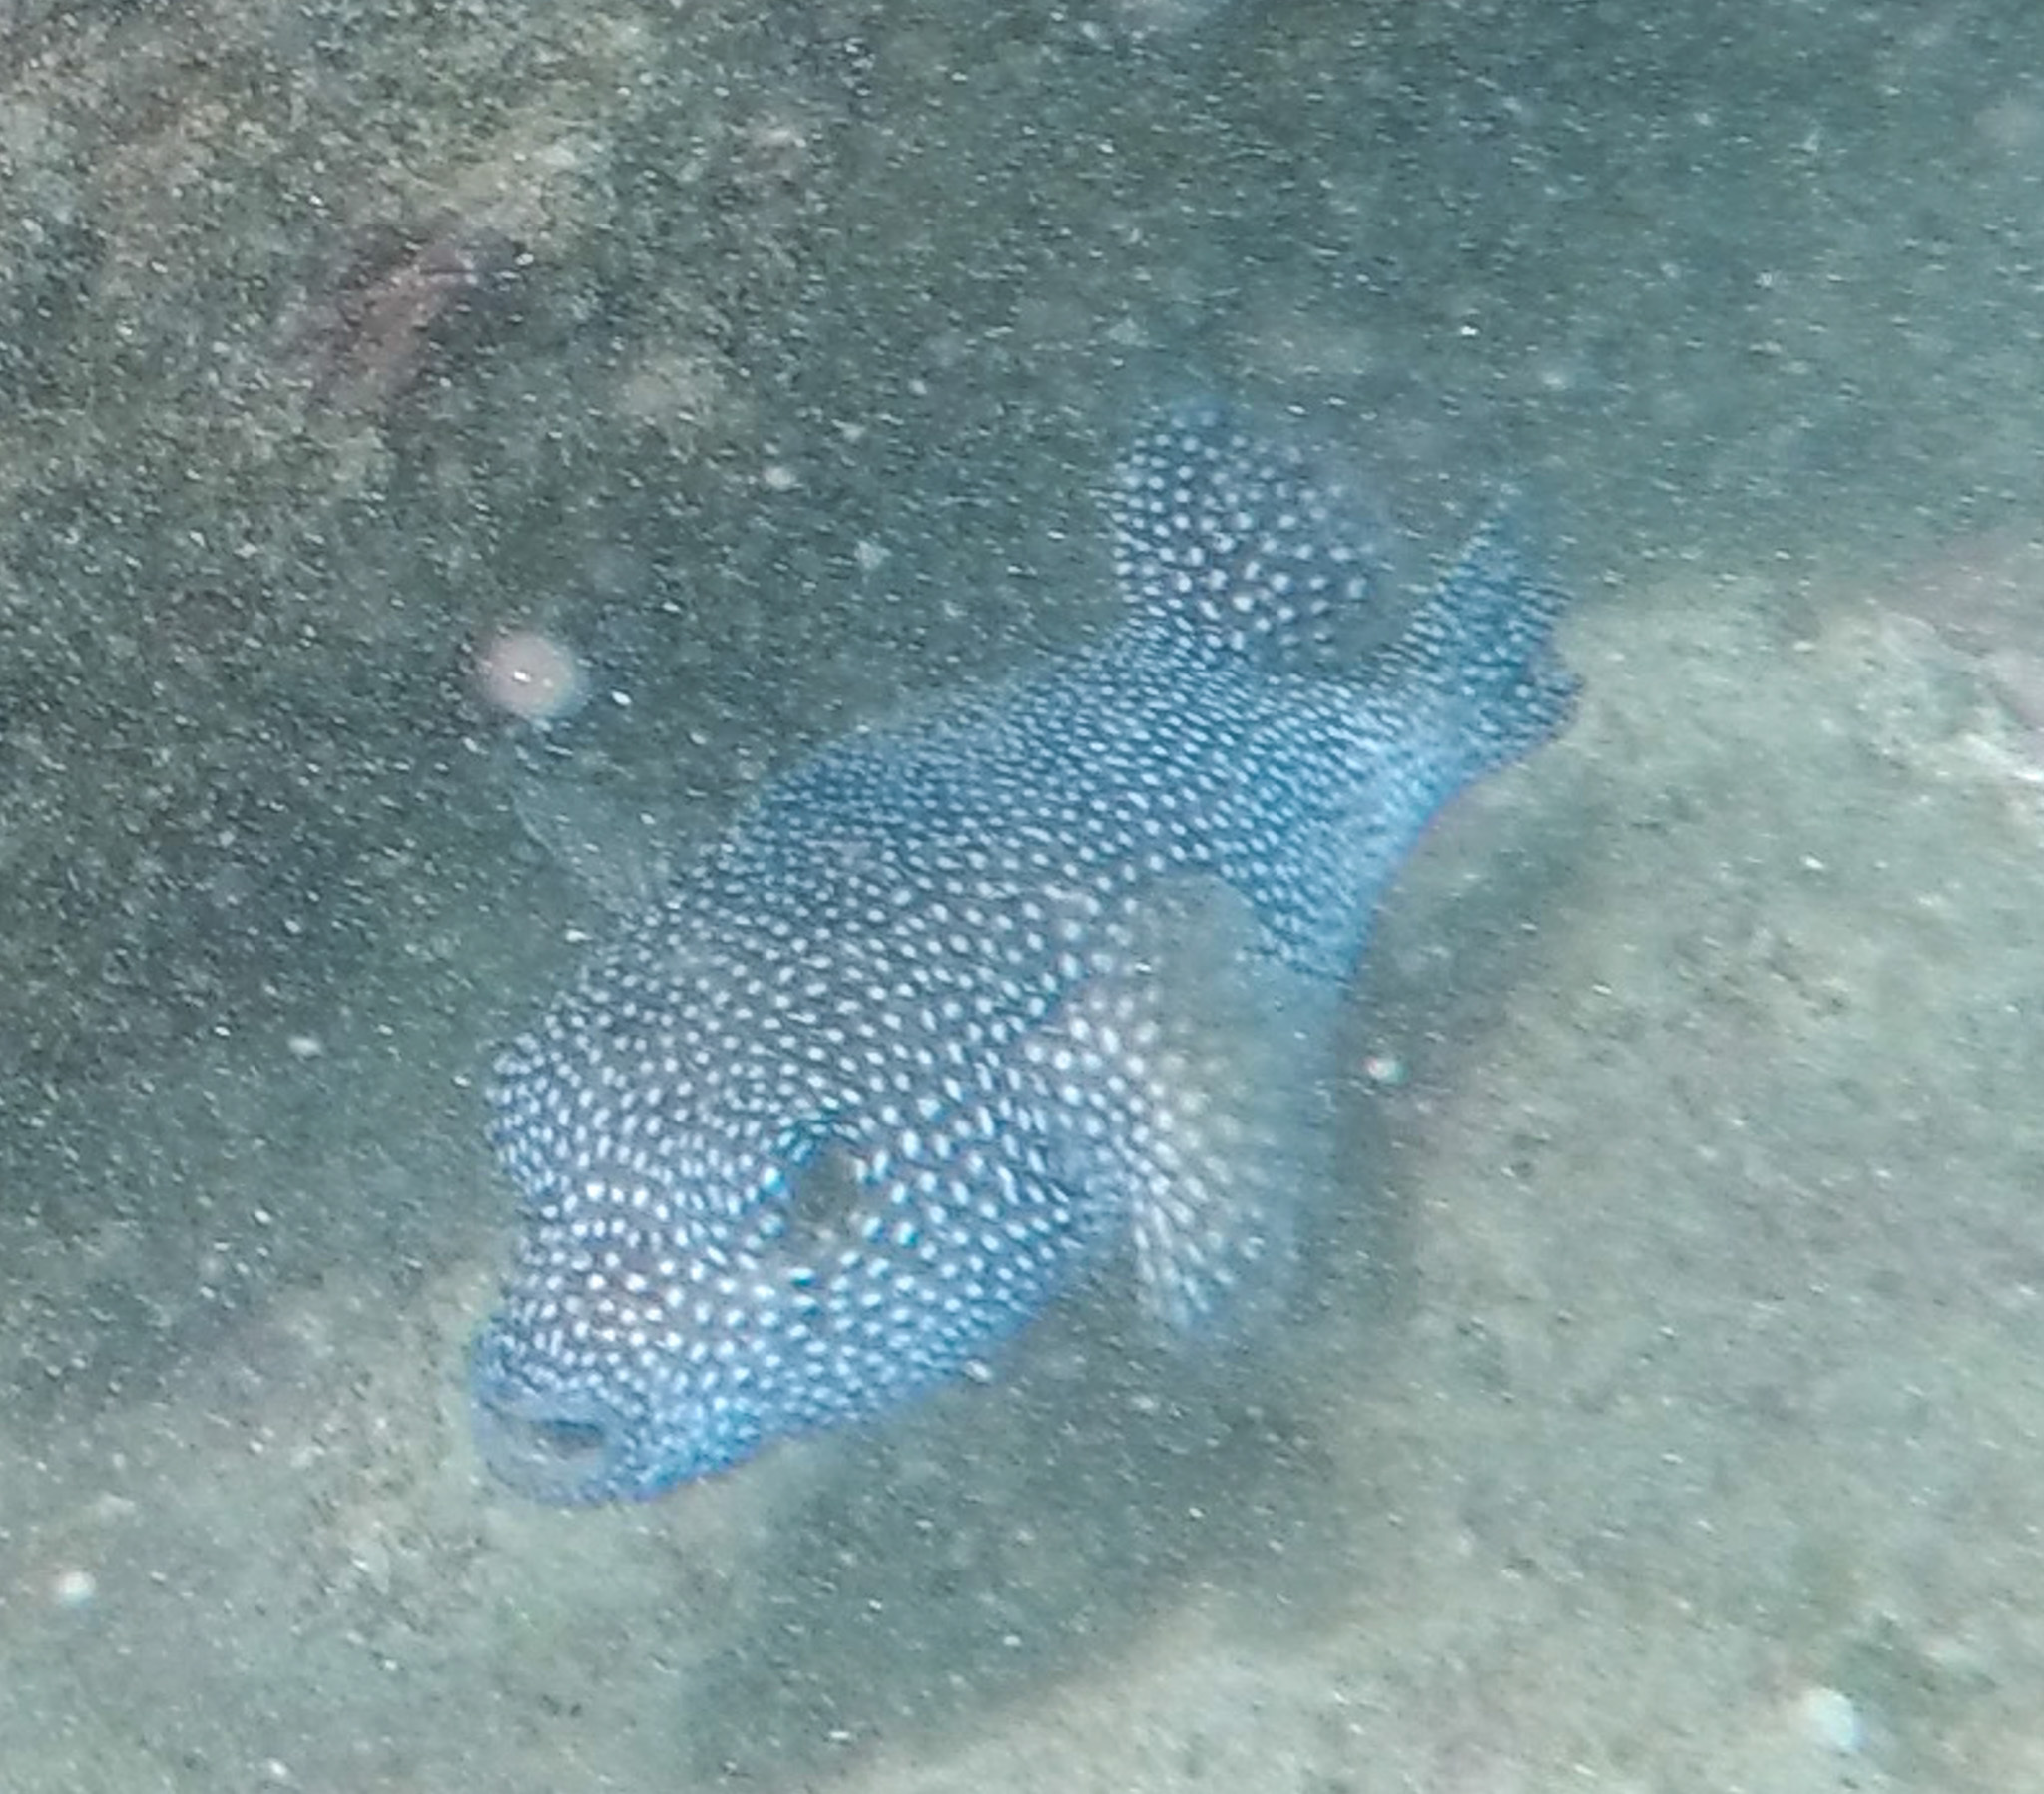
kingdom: Animalia
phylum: Chordata
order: Tetraodontiformes
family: Tetraodontidae
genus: Arothron
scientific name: Arothron meleagris
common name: Guinea-fowl pufferfish
